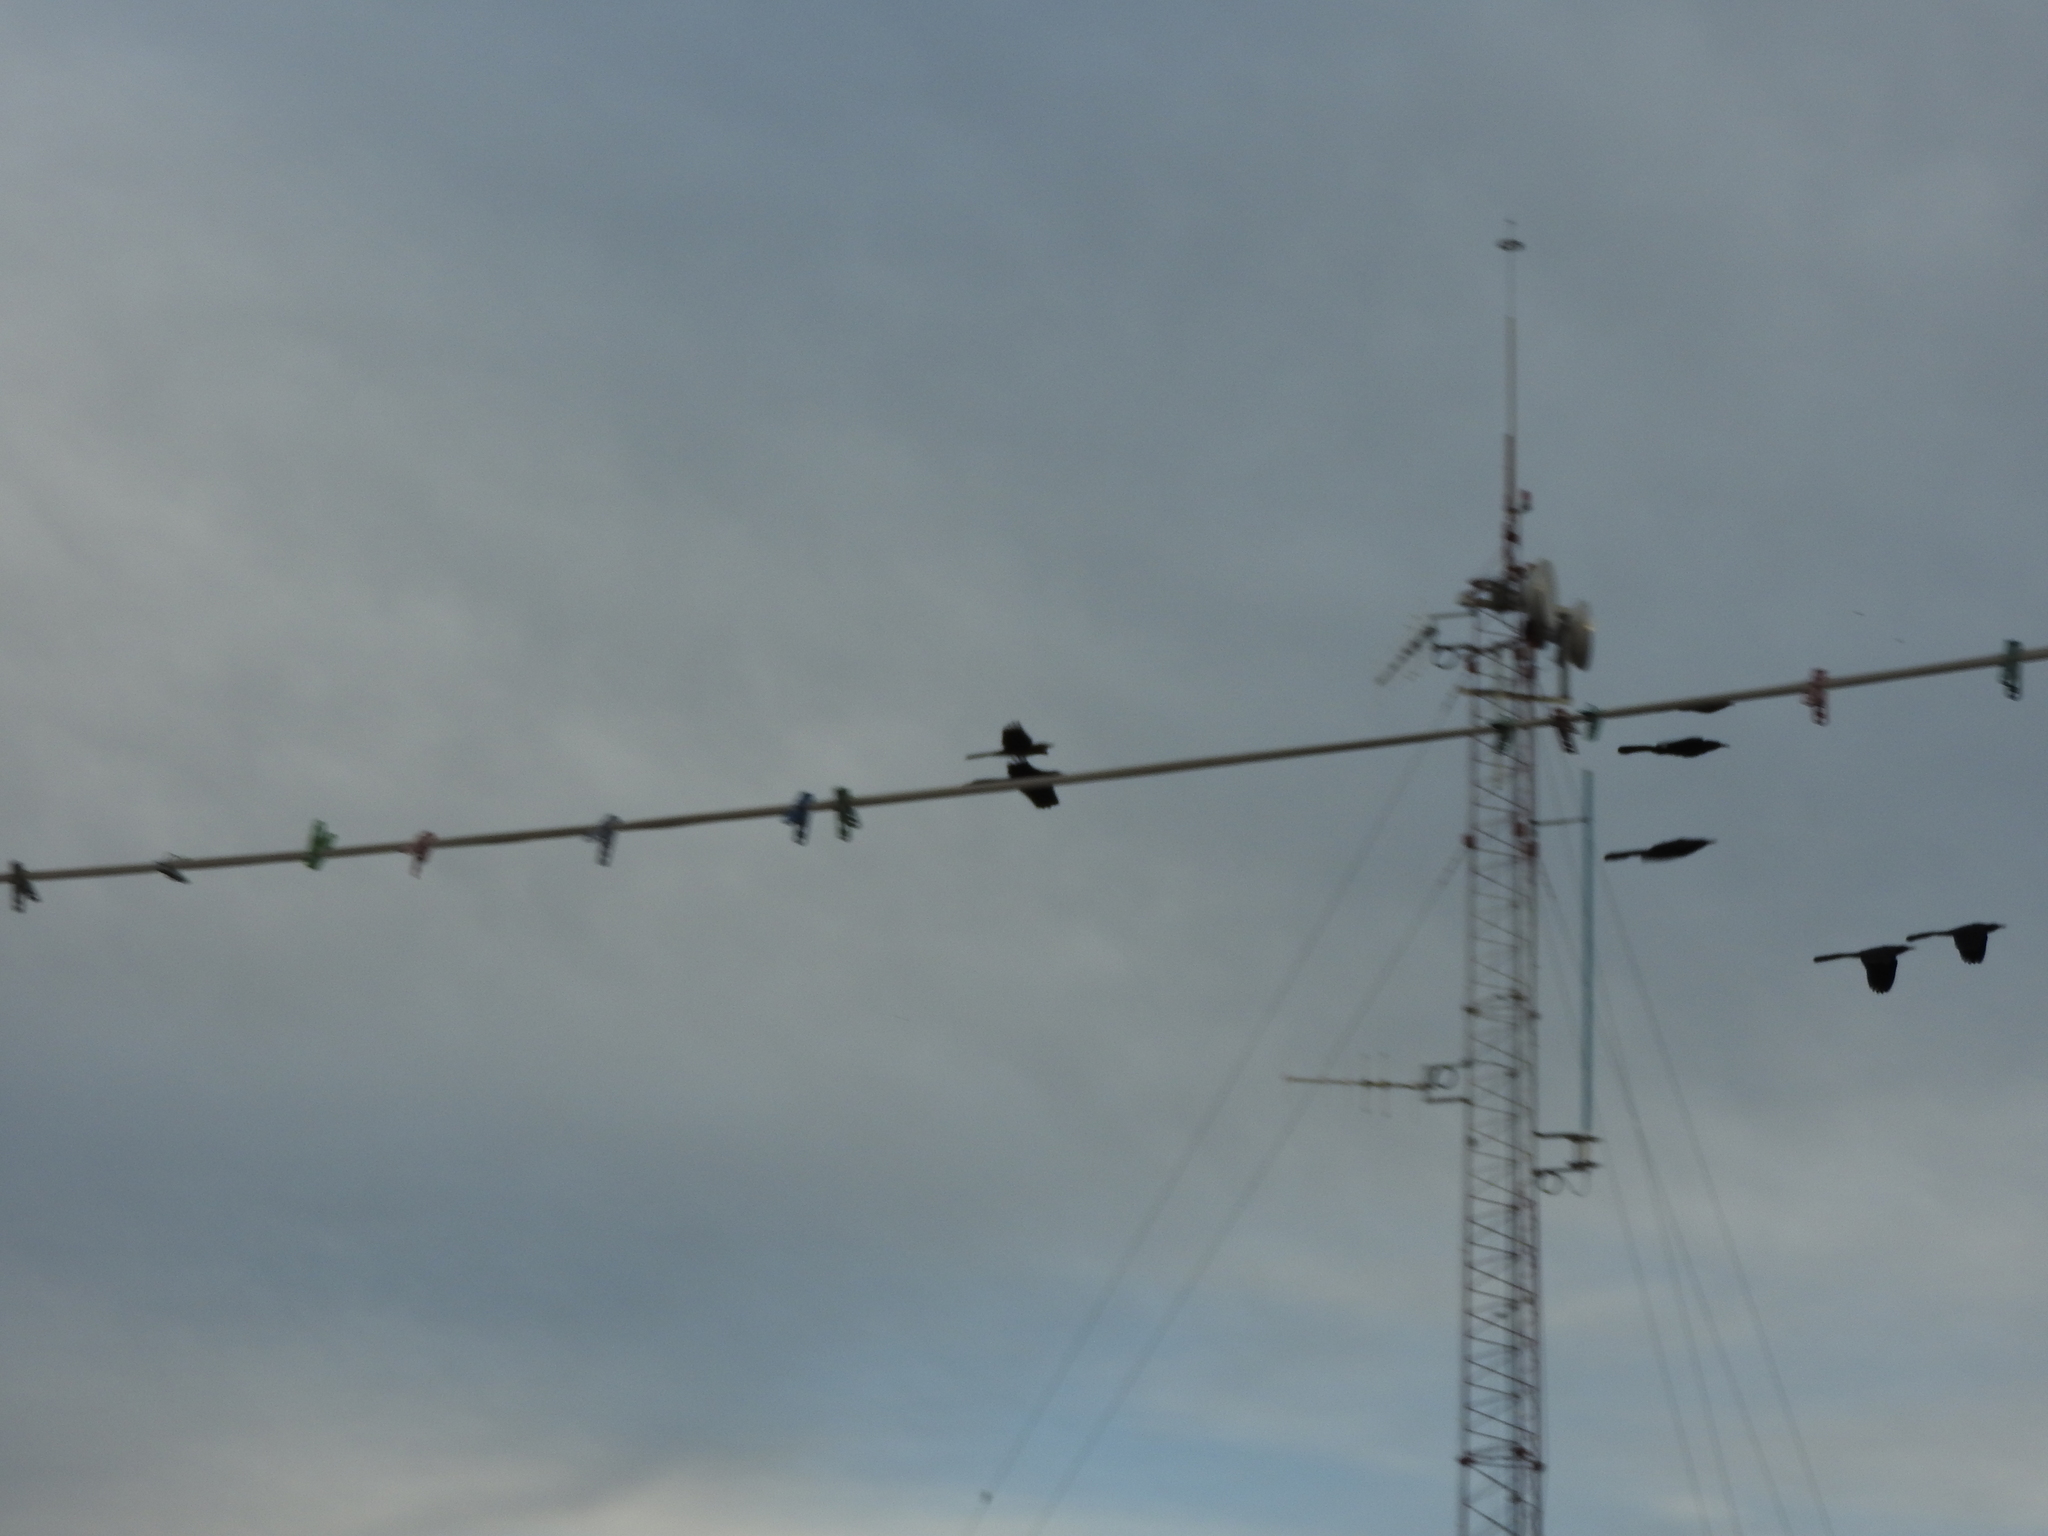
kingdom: Animalia
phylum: Chordata
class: Aves
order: Passeriformes
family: Icteridae
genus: Quiscalus
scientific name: Quiscalus mexicanus
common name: Great-tailed grackle
